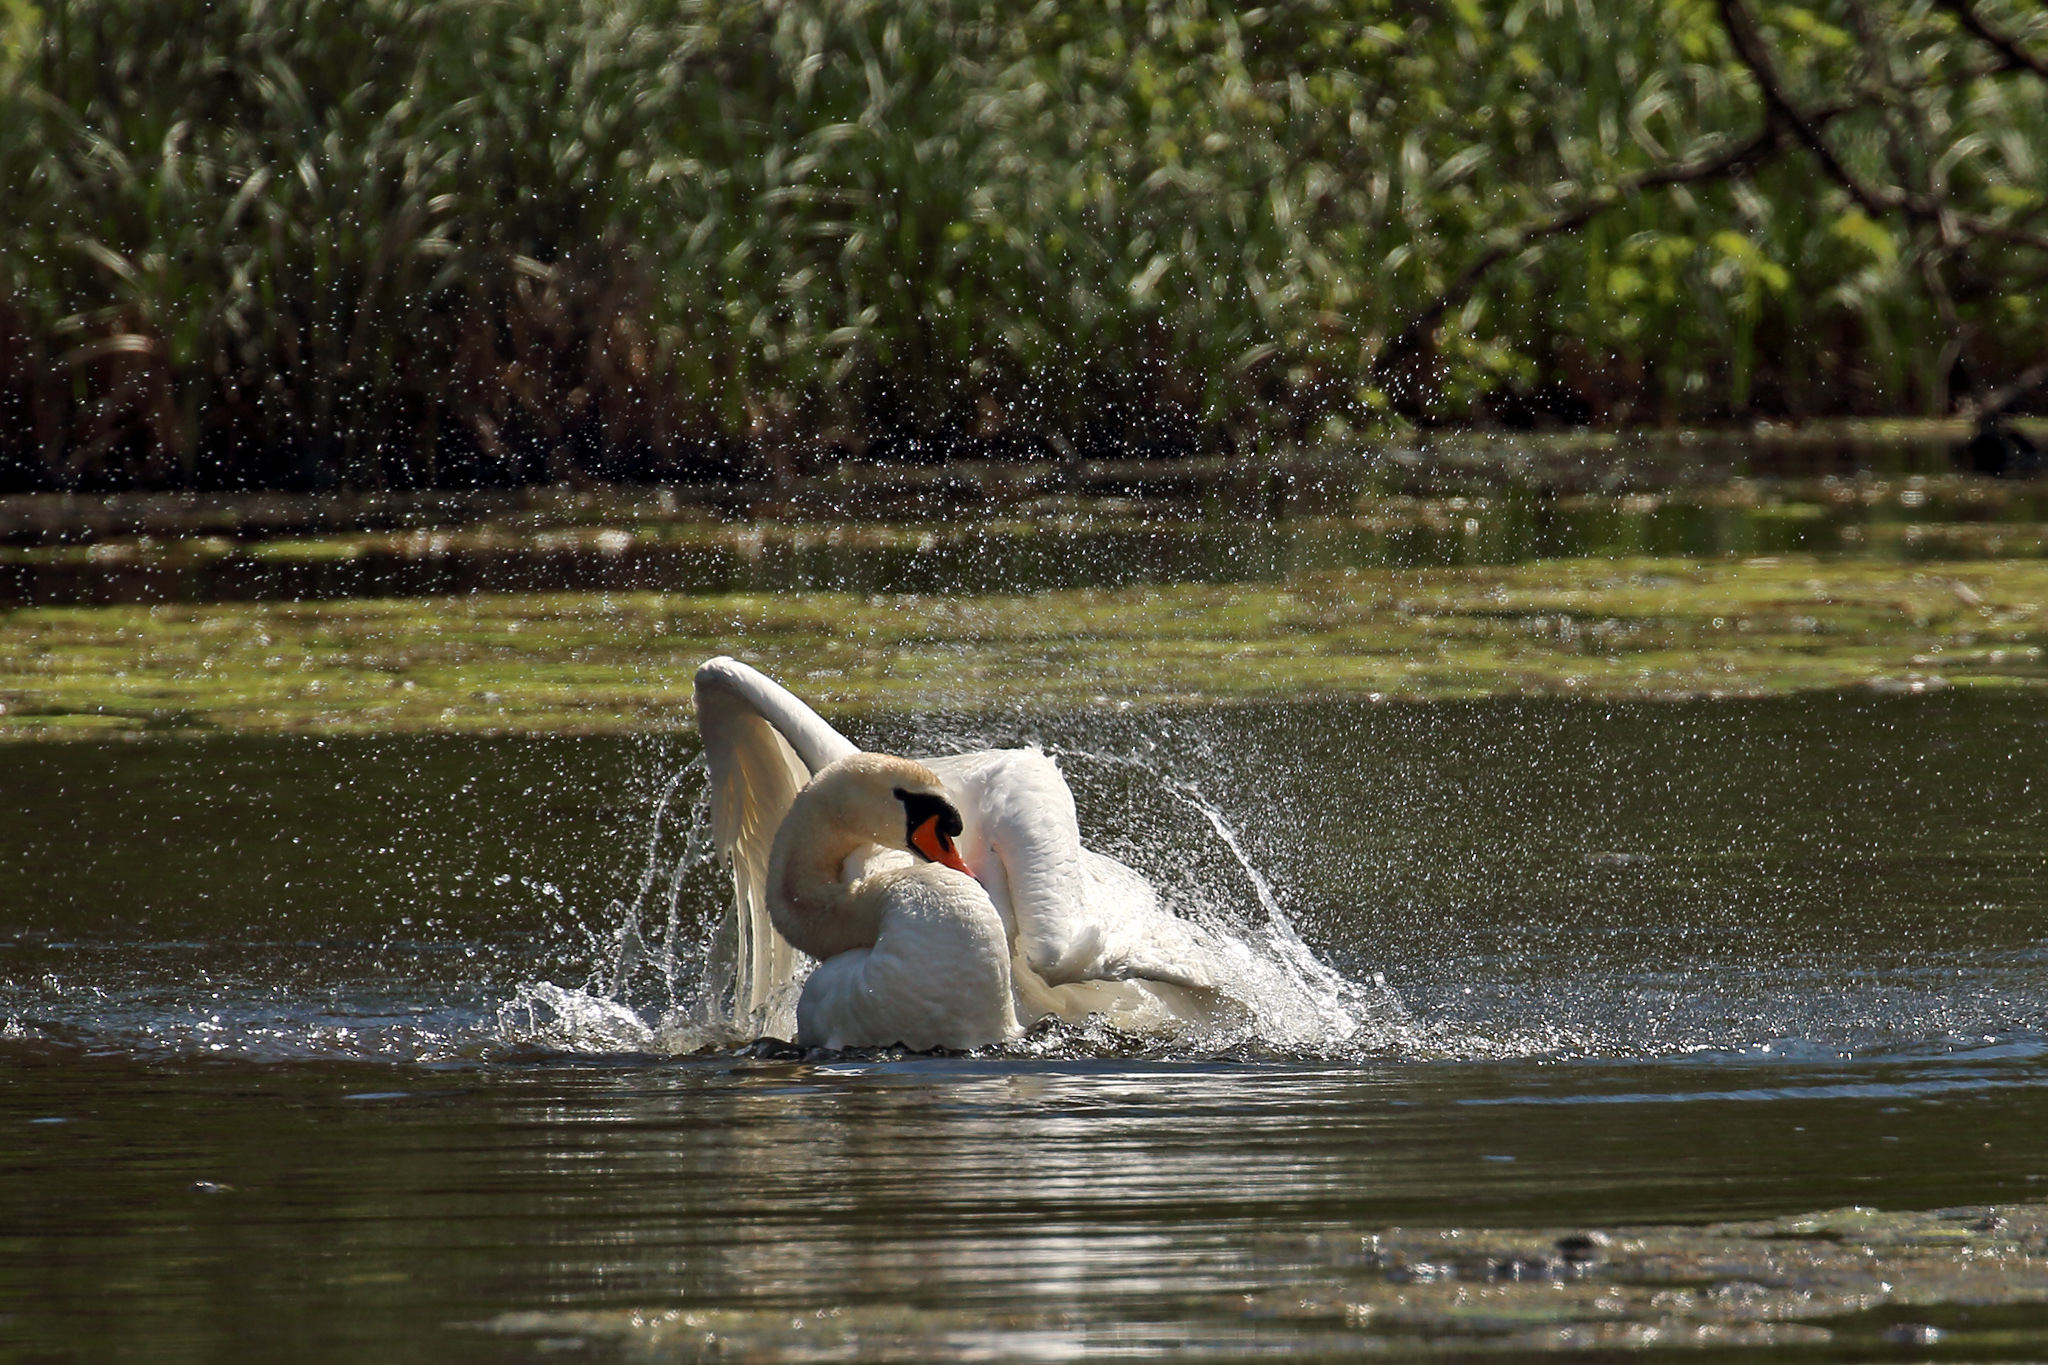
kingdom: Animalia
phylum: Chordata
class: Aves
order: Anseriformes
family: Anatidae
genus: Cygnus
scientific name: Cygnus olor
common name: Mute swan
